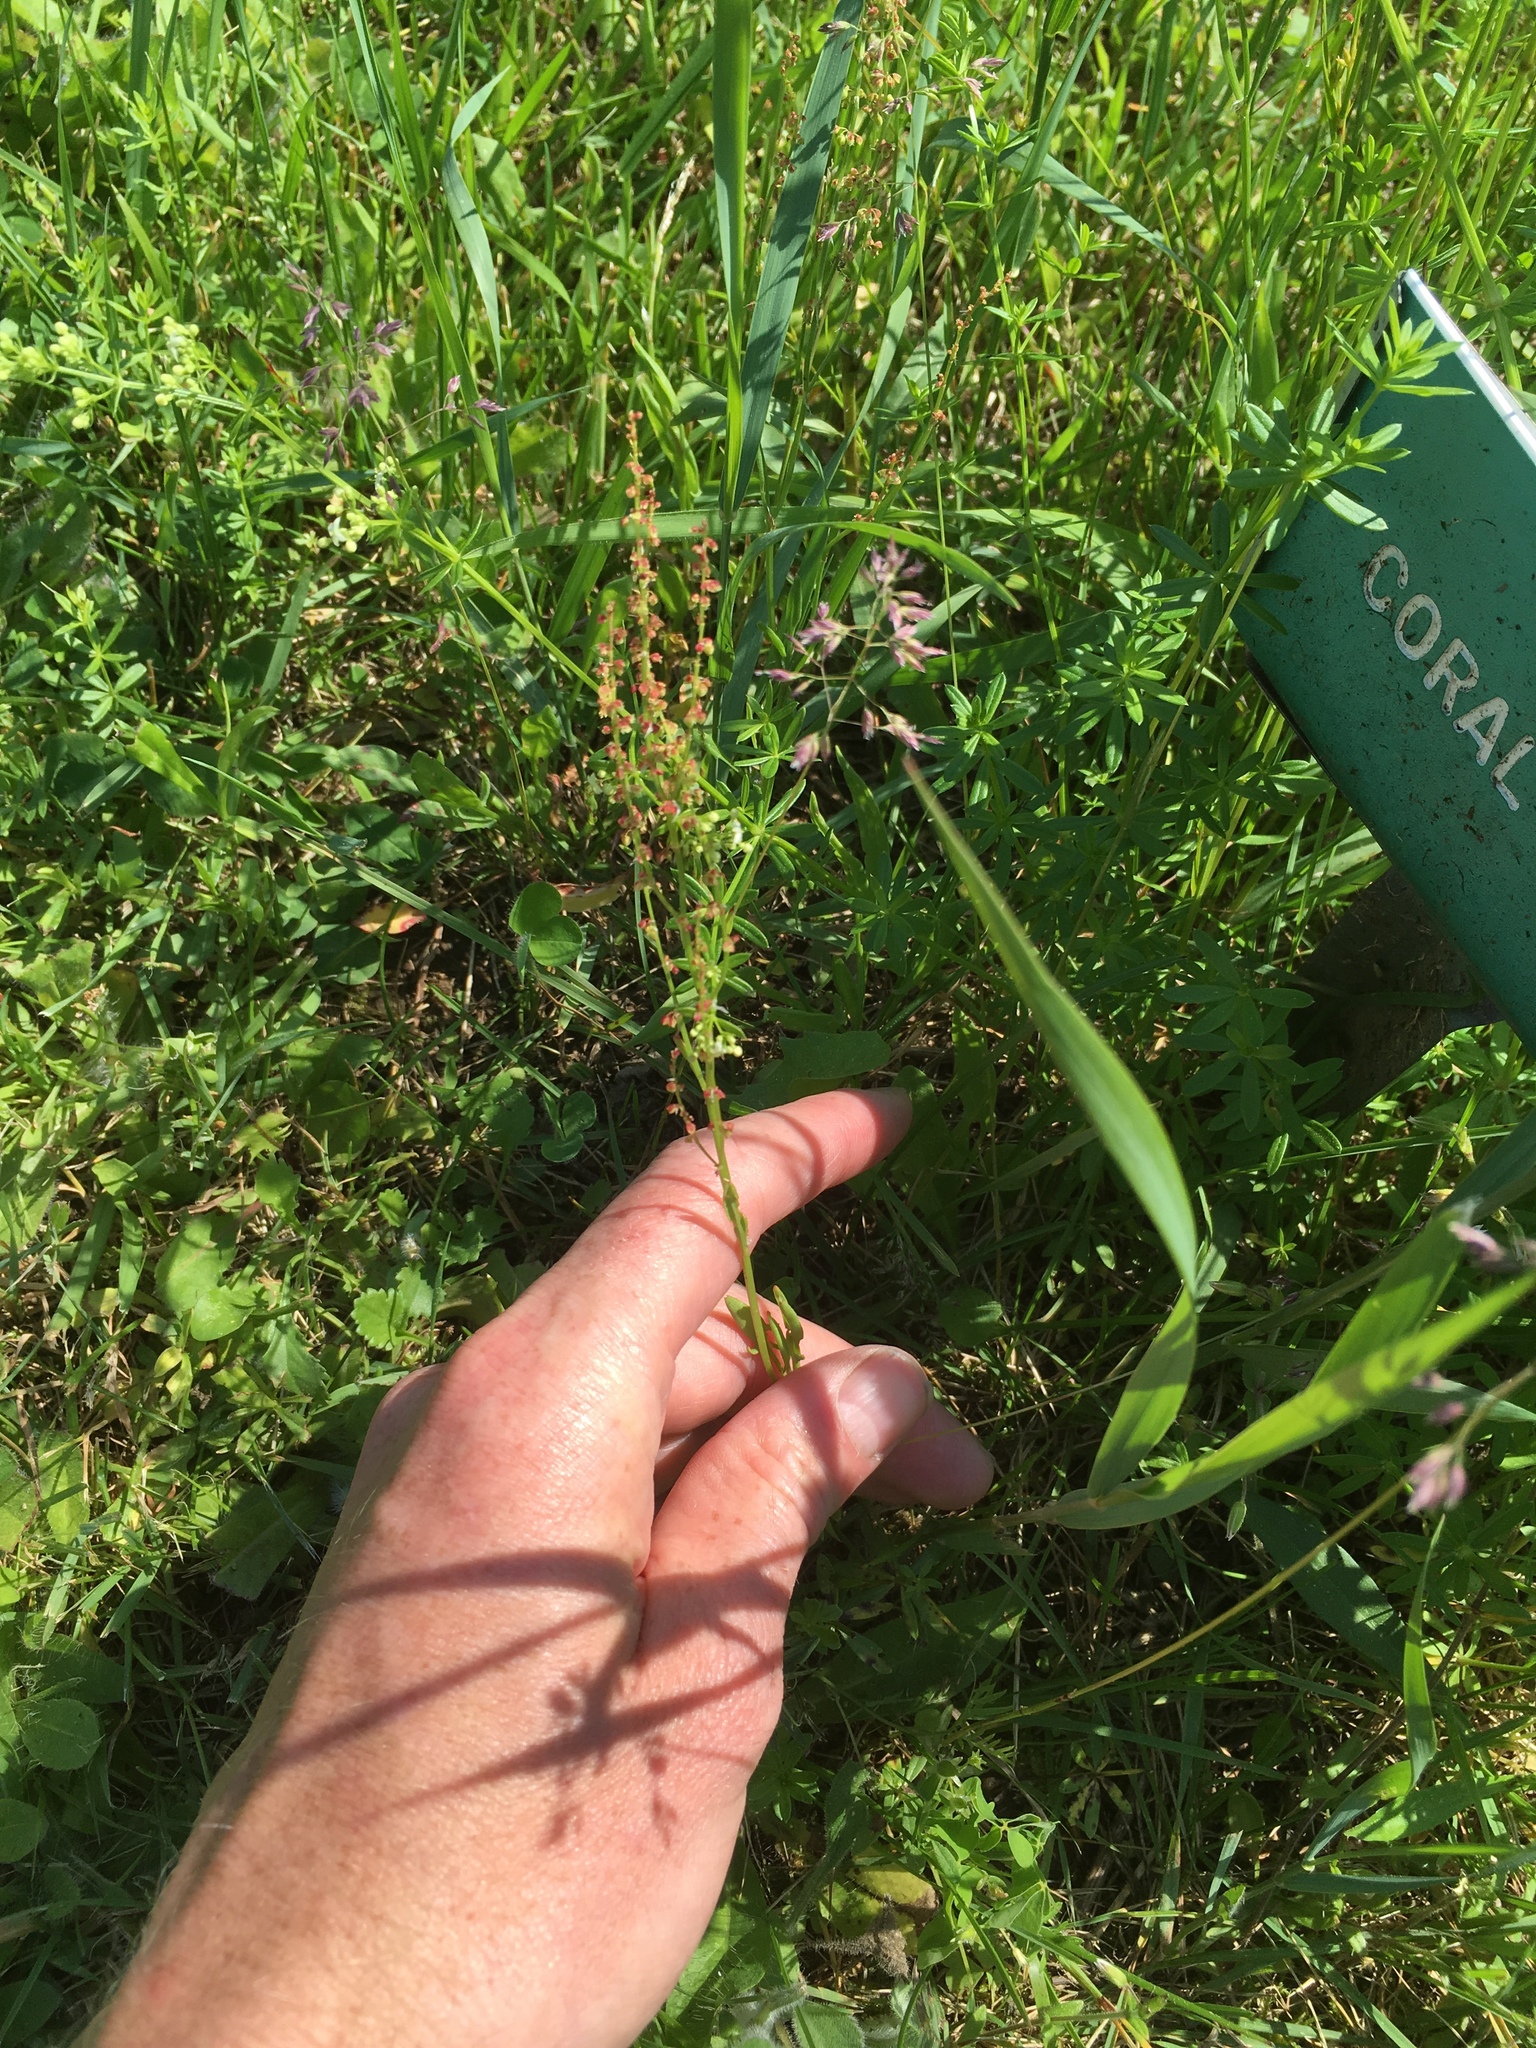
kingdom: Plantae
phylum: Tracheophyta
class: Magnoliopsida
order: Caryophyllales
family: Polygonaceae
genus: Rumex
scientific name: Rumex acetosella
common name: Common sheep sorrel
